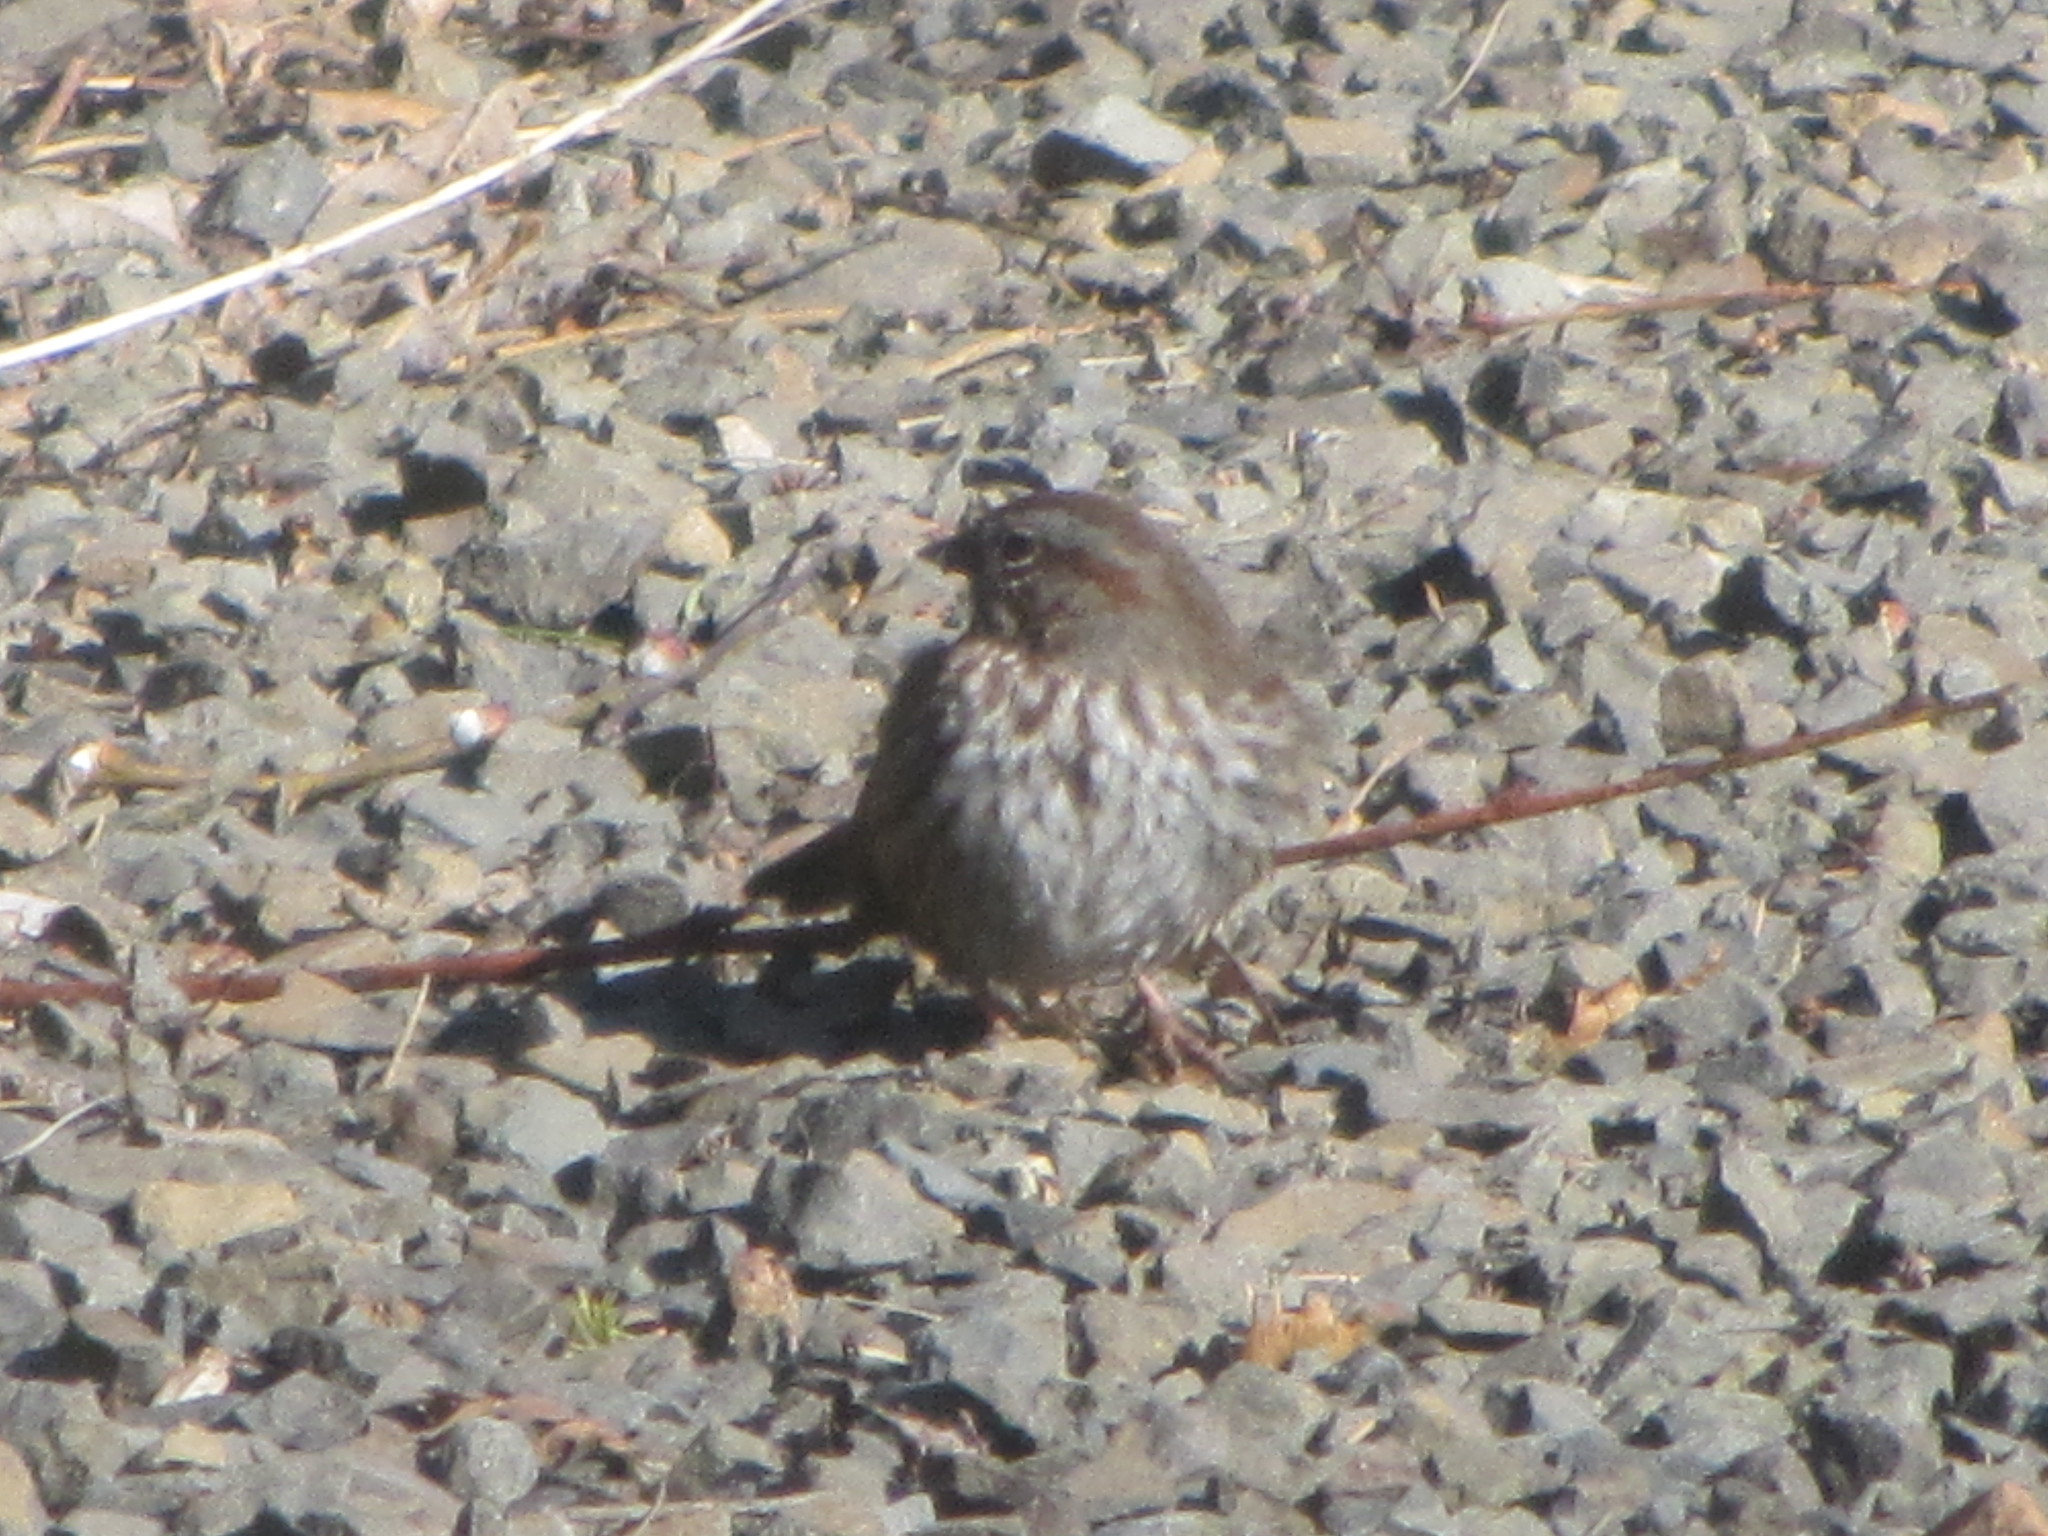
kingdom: Animalia
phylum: Chordata
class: Aves
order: Passeriformes
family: Passerellidae
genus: Melospiza
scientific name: Melospiza melodia
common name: Song sparrow
